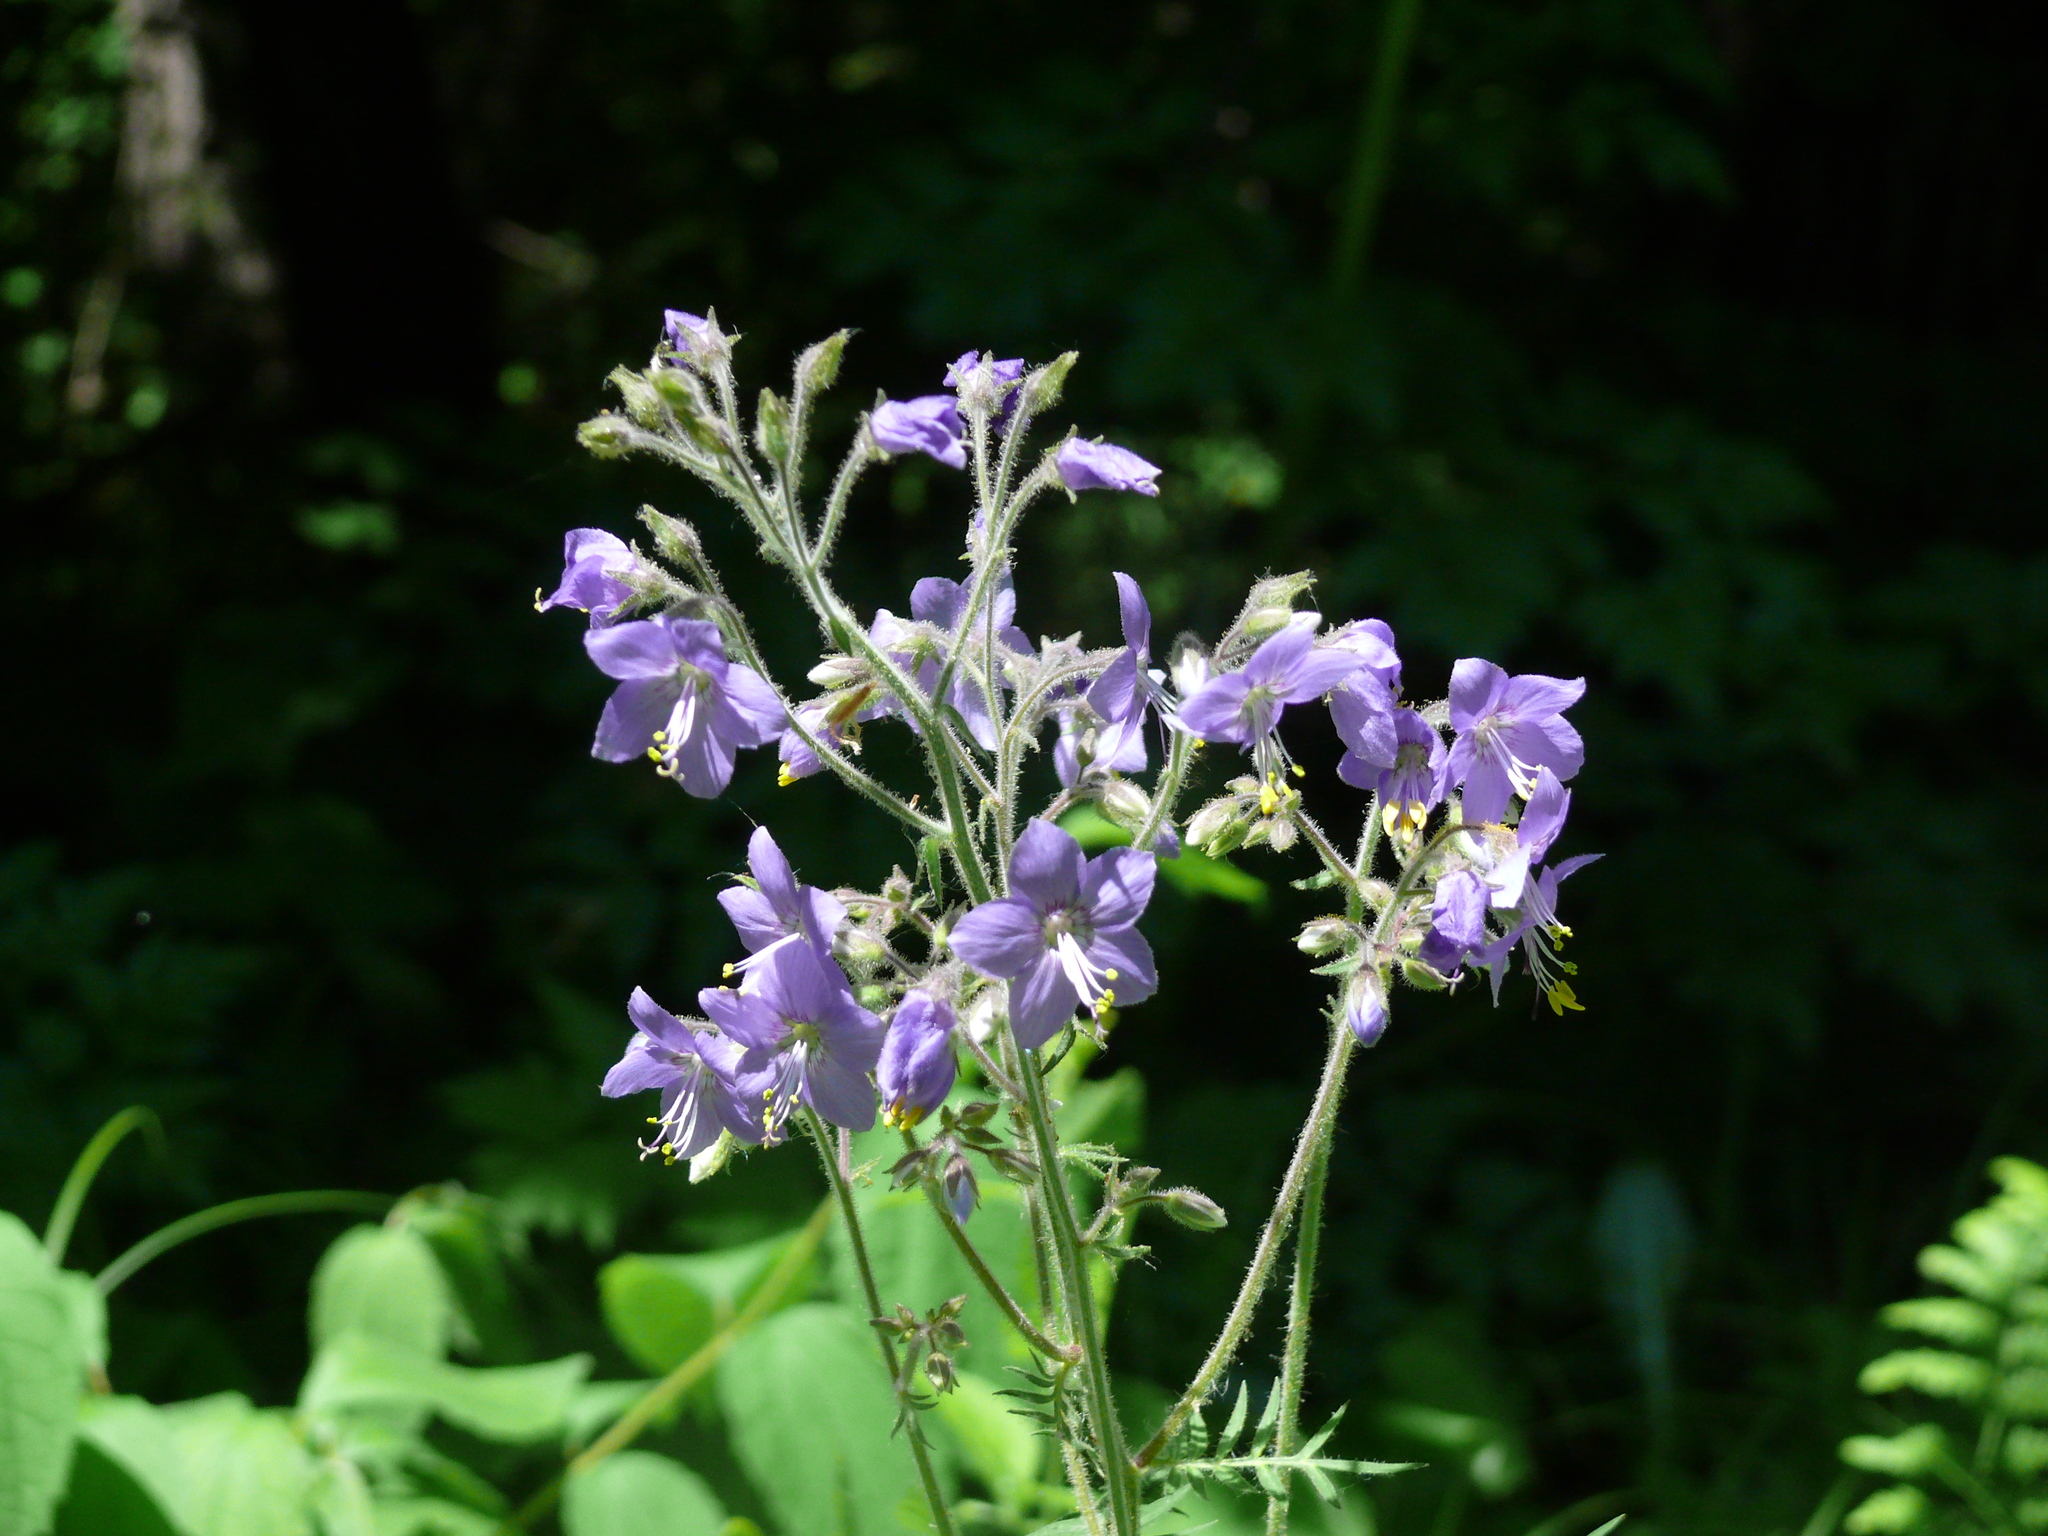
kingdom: Plantae
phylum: Tracheophyta
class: Magnoliopsida
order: Ericales
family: Polemoniaceae
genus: Polemonium
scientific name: Polemonium acutiflorum
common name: Tall jacob's-ladder
